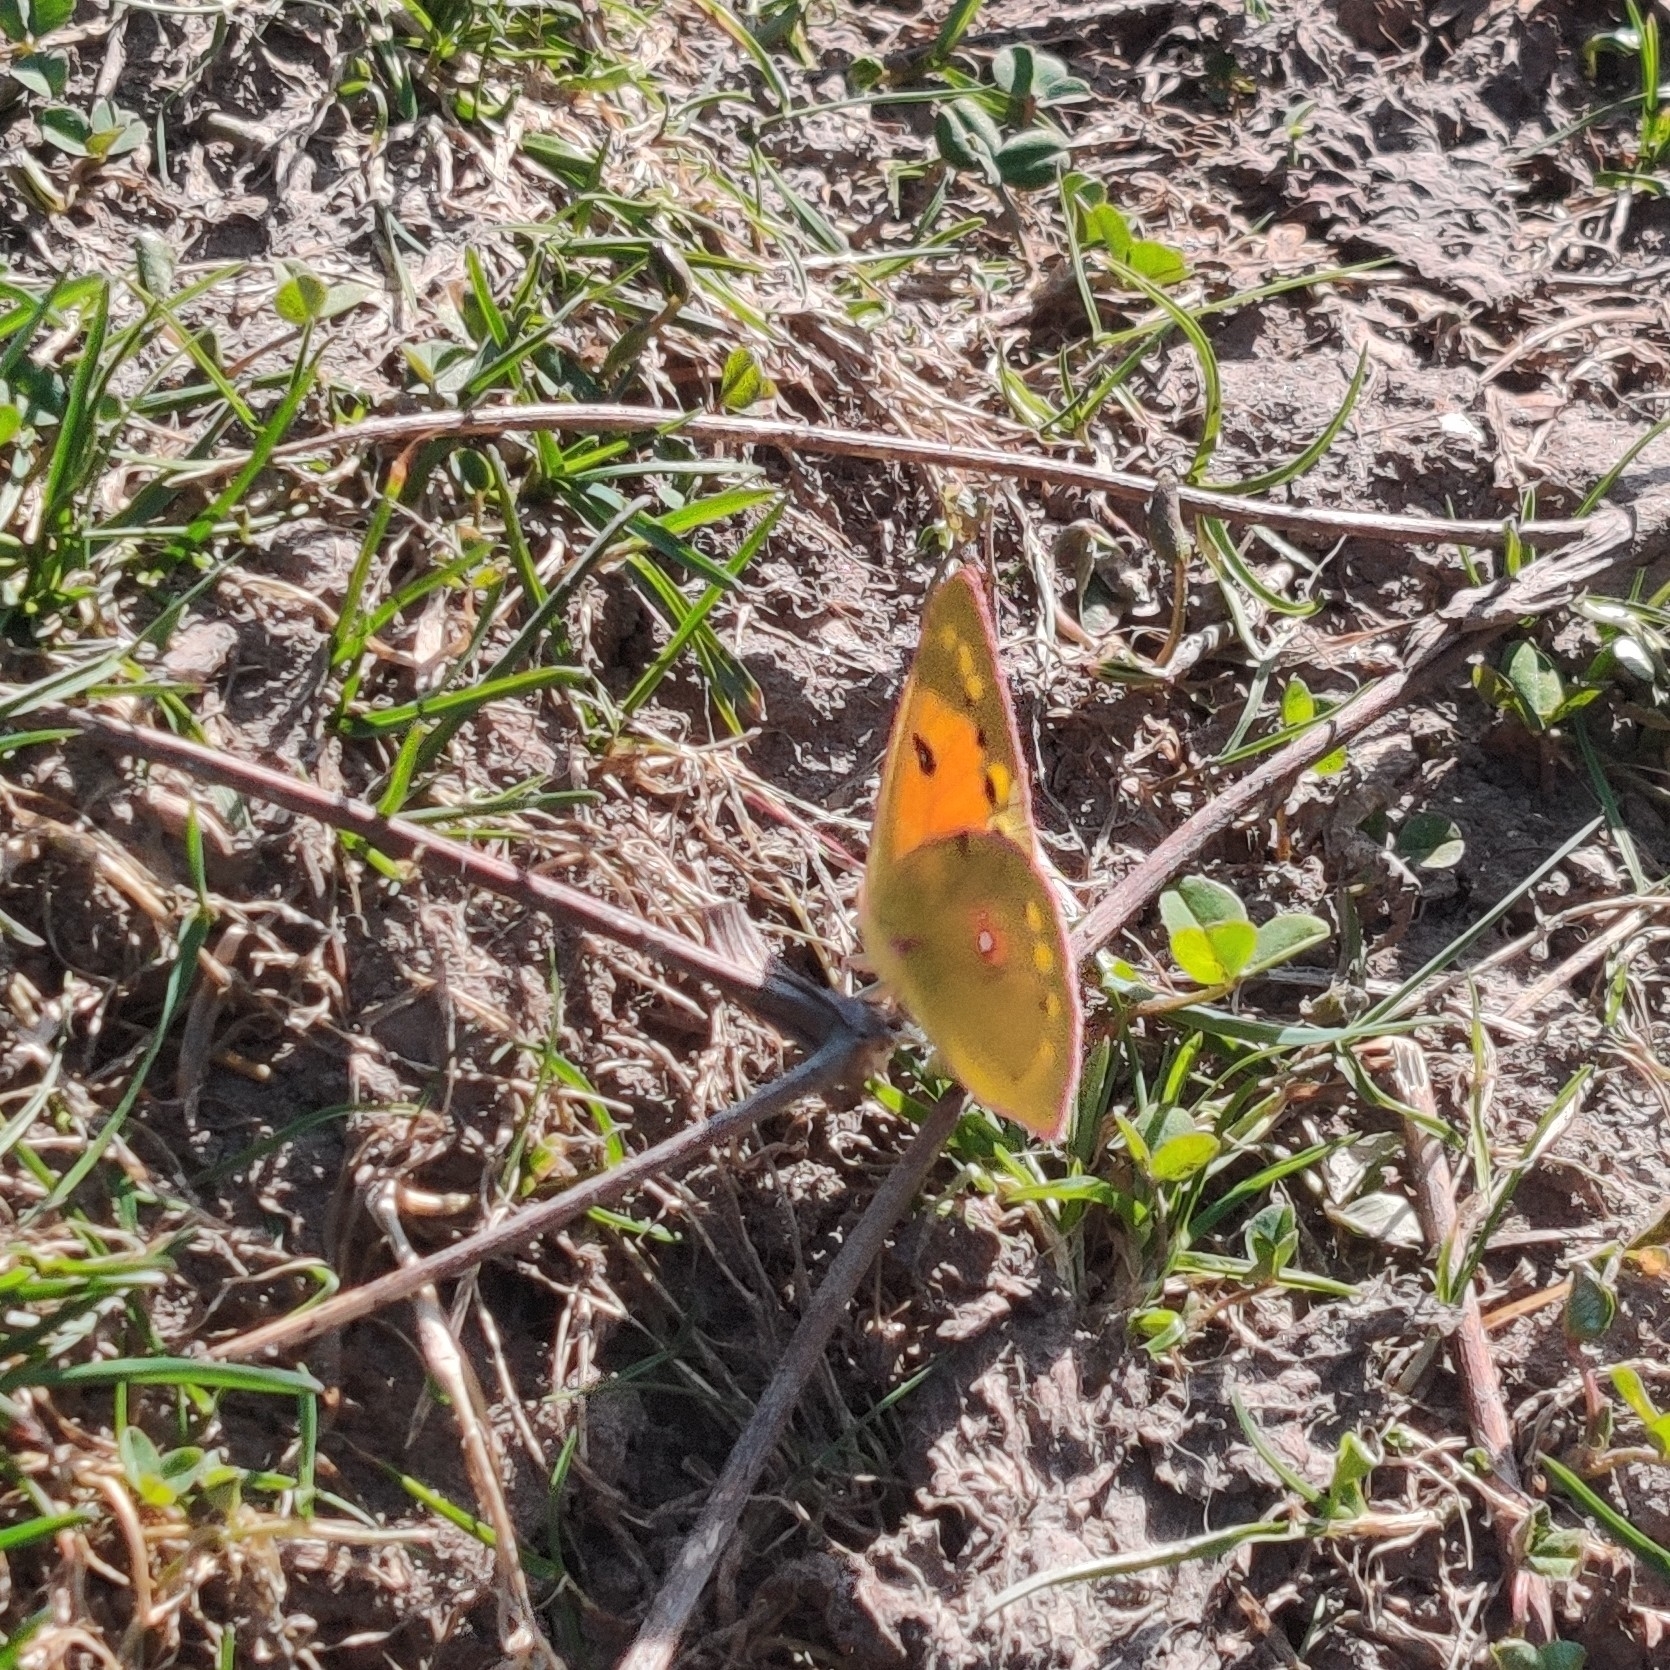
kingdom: Animalia
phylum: Arthropoda
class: Insecta
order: Lepidoptera
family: Pieridae
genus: Colias
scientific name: Colias fieldii
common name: Dark clouded yellow
